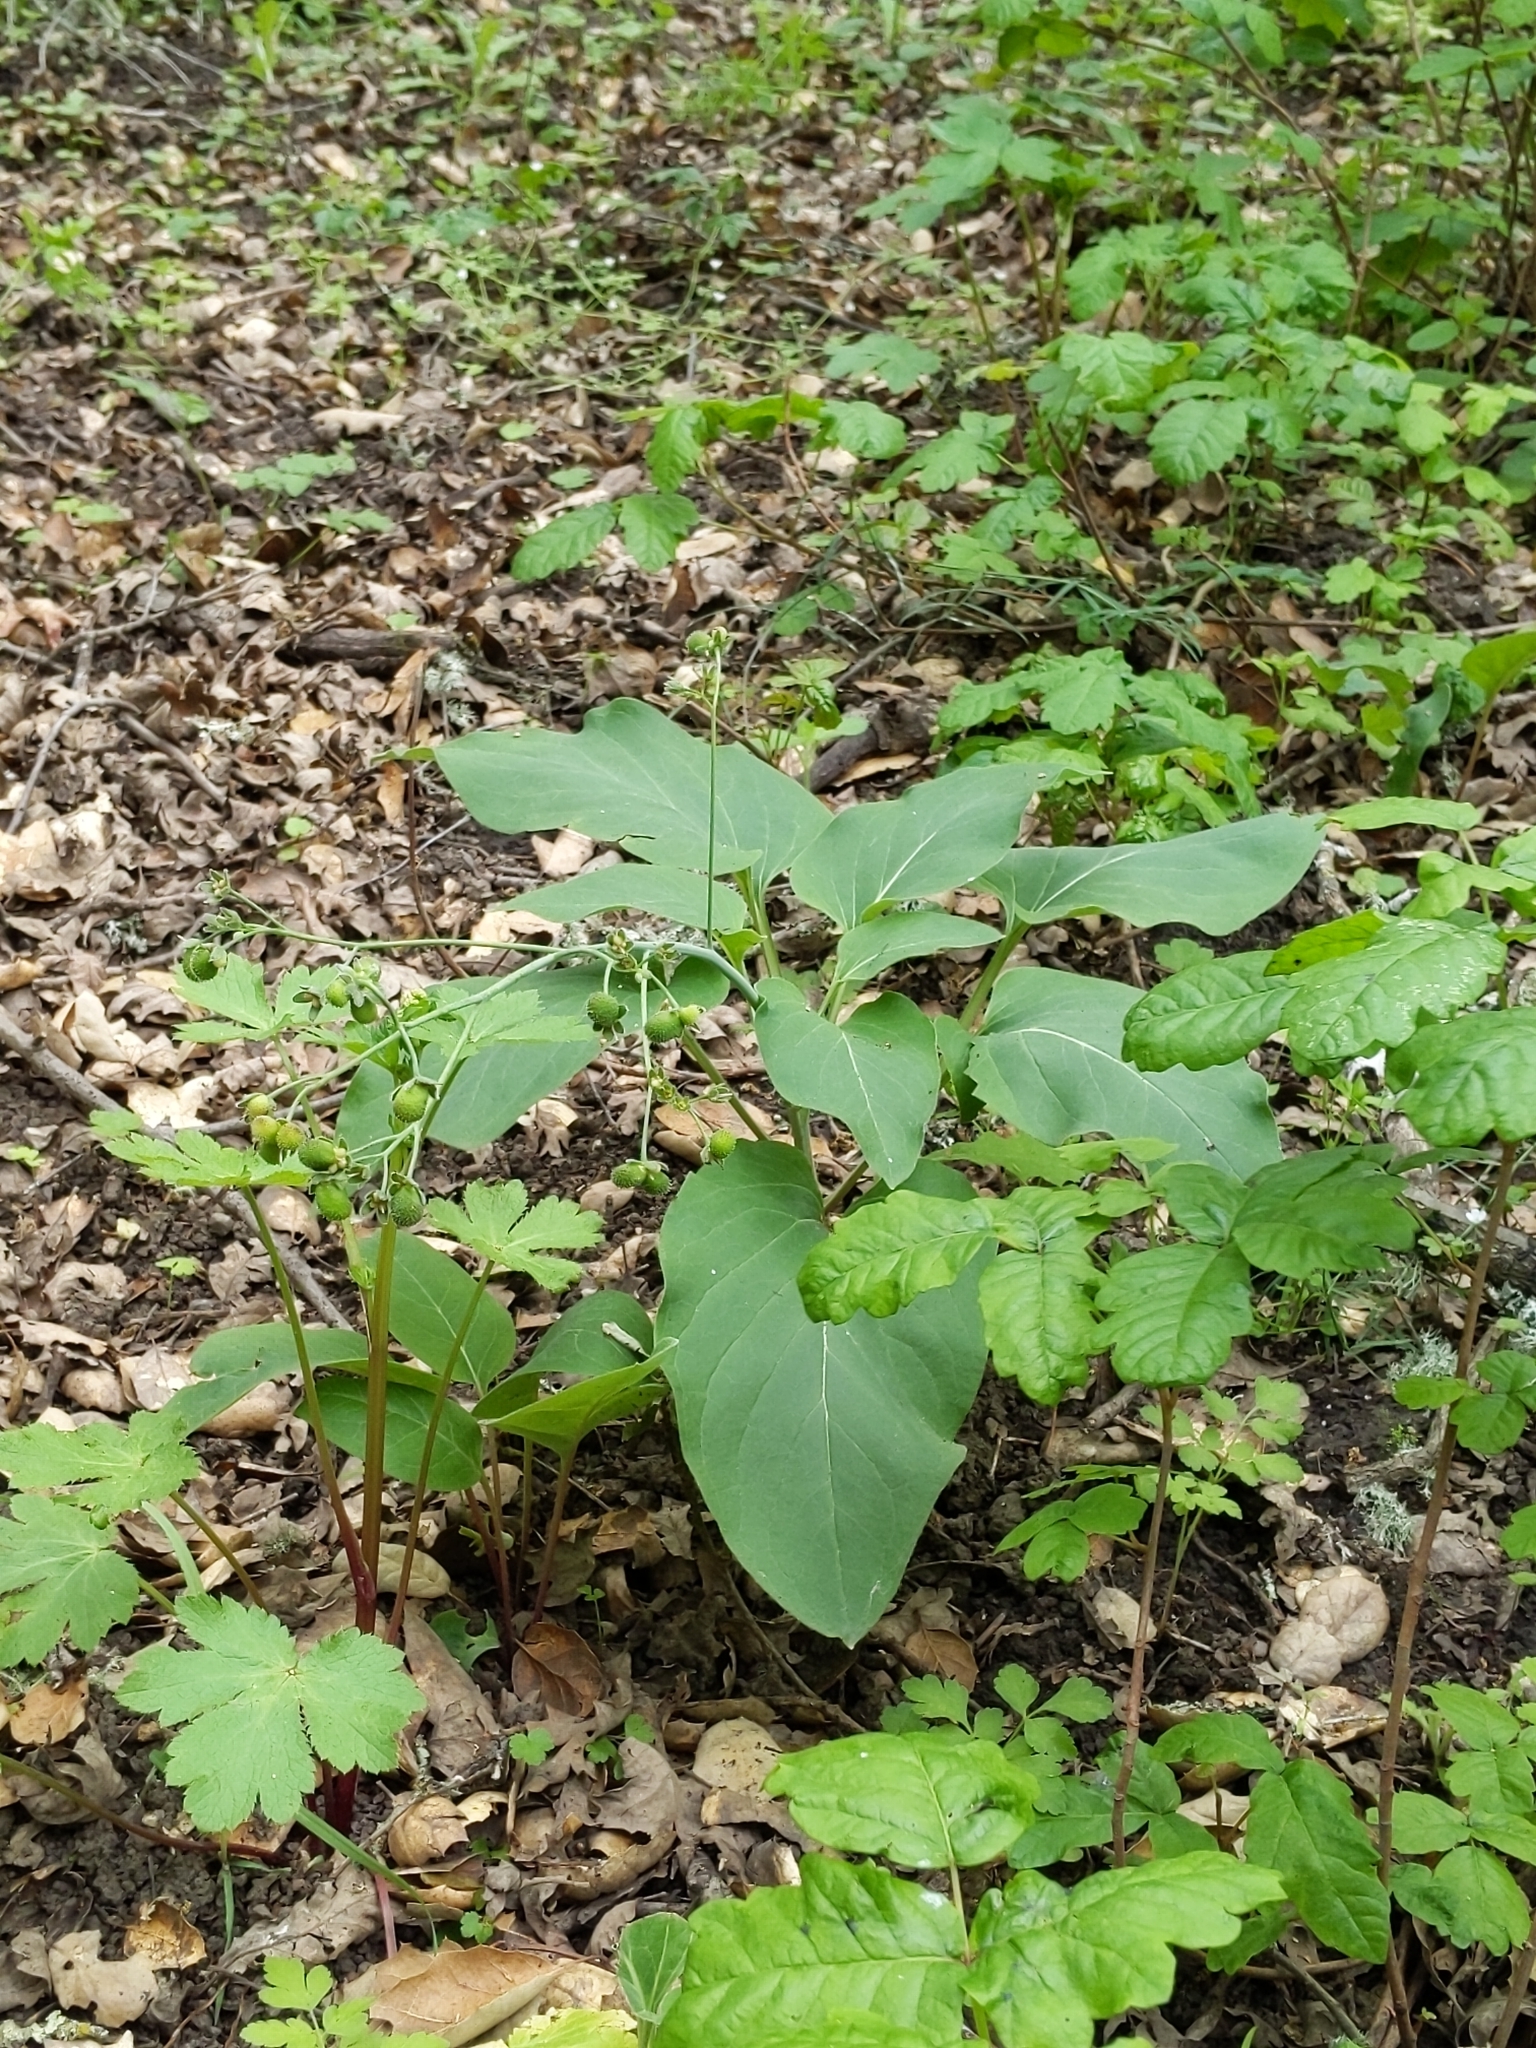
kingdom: Plantae
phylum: Tracheophyta
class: Magnoliopsida
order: Boraginales
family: Boraginaceae
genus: Adelinia
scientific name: Adelinia grande
